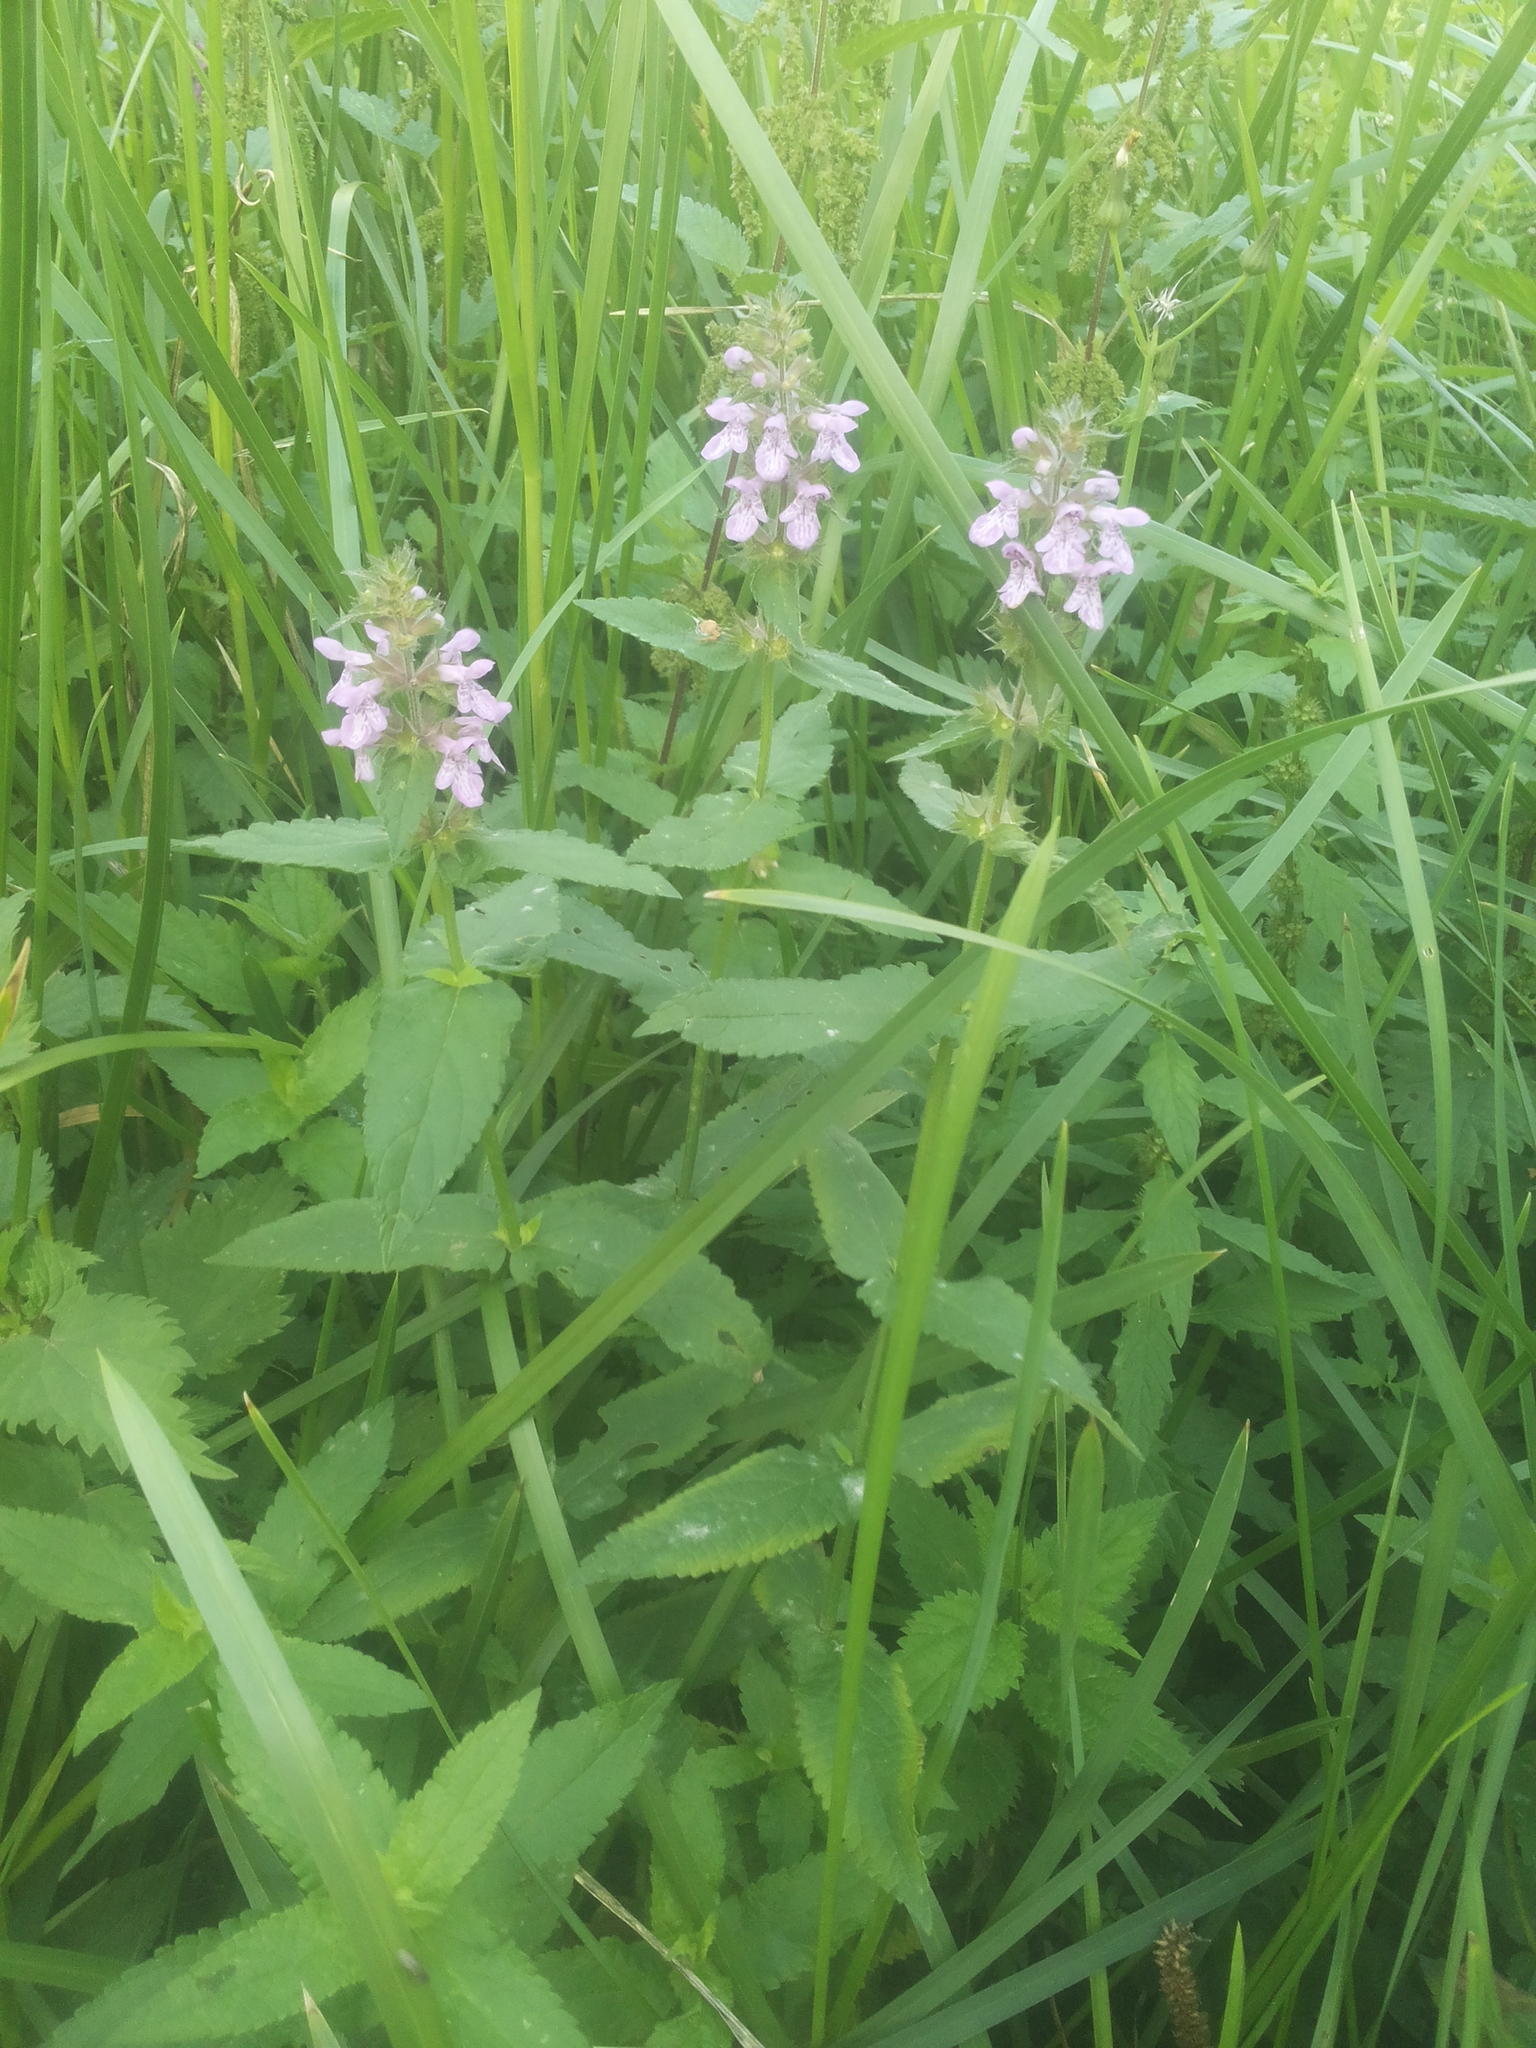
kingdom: Plantae
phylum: Tracheophyta
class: Magnoliopsida
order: Lamiales
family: Lamiaceae
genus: Stachys
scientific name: Stachys palustris
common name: Marsh woundwort
